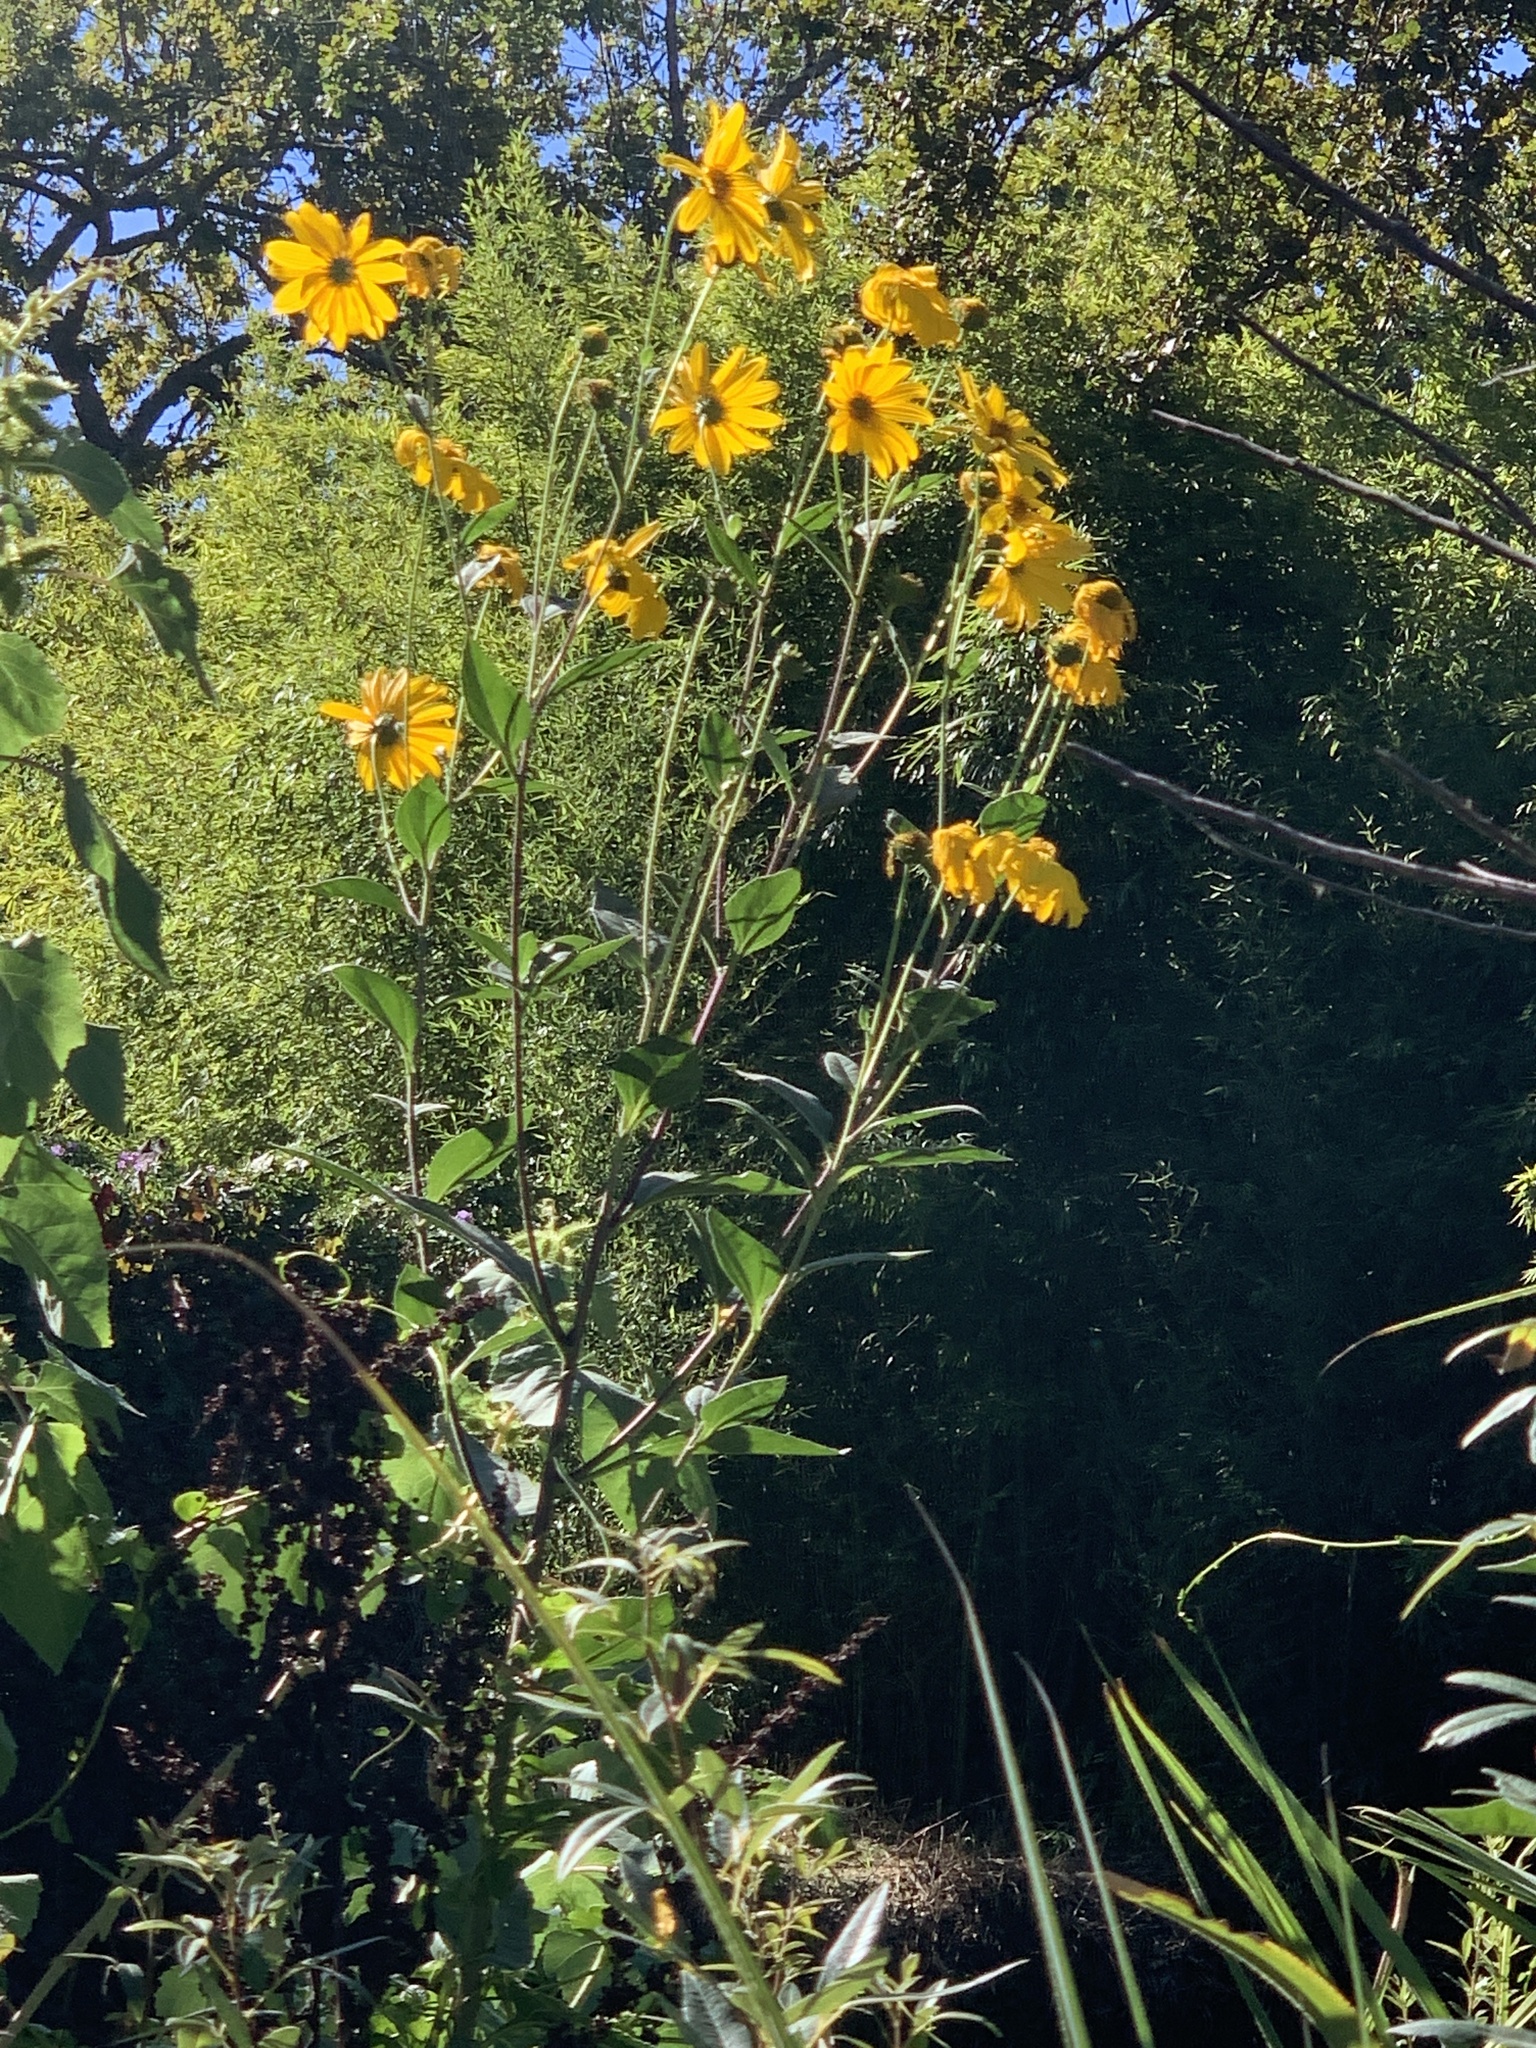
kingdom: Plantae
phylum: Tracheophyta
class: Magnoliopsida
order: Asterales
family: Asteraceae
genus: Helianthus
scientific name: Helianthus tuberosus
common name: Jerusalem artichoke
